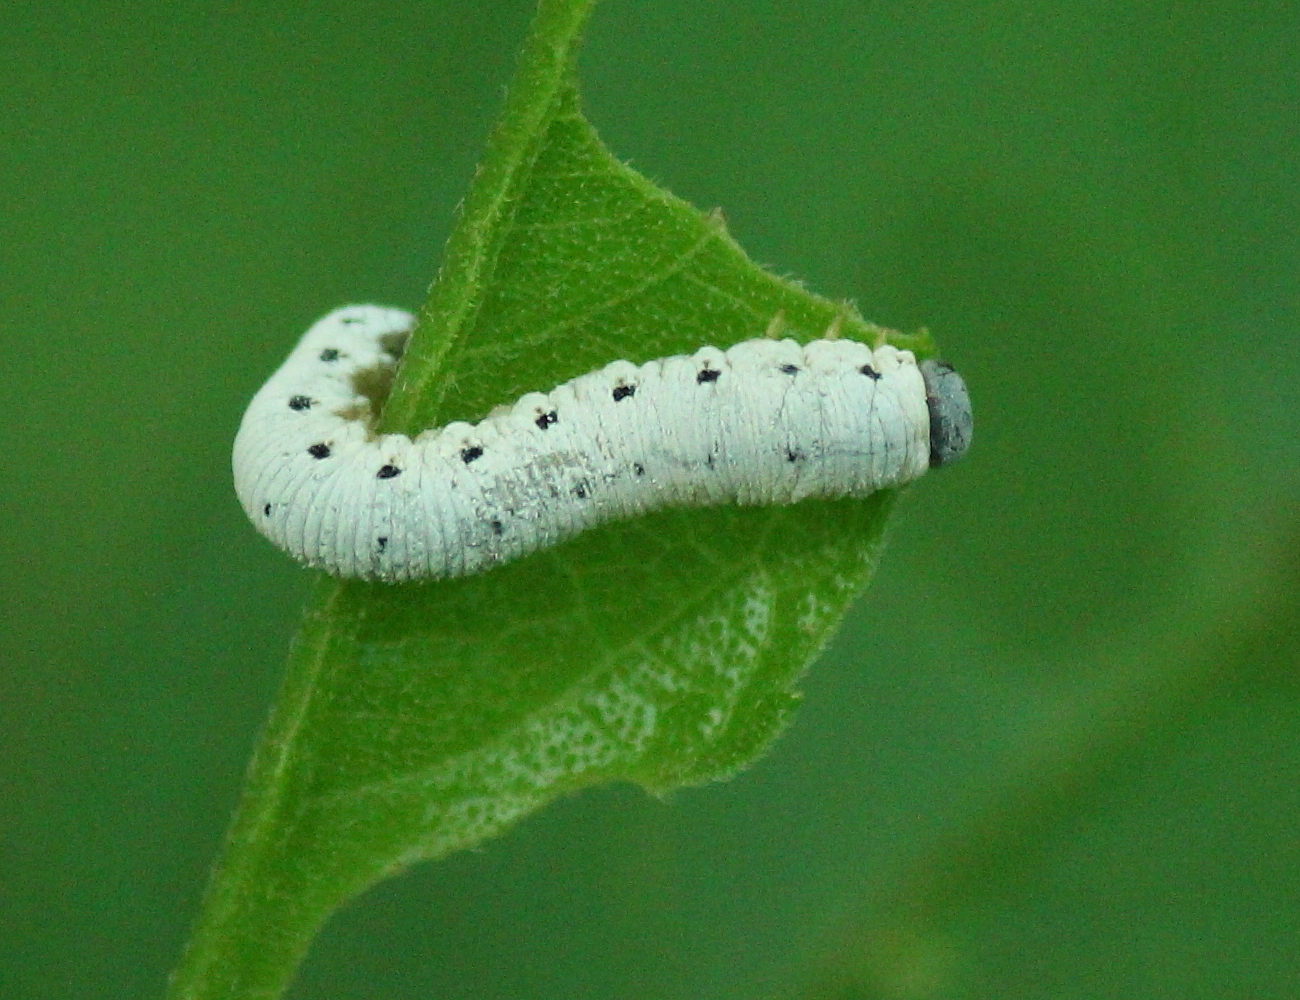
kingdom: Animalia
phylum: Arthropoda
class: Insecta
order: Hymenoptera
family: Tenthredinidae
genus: Macrophya
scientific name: Macrophya
